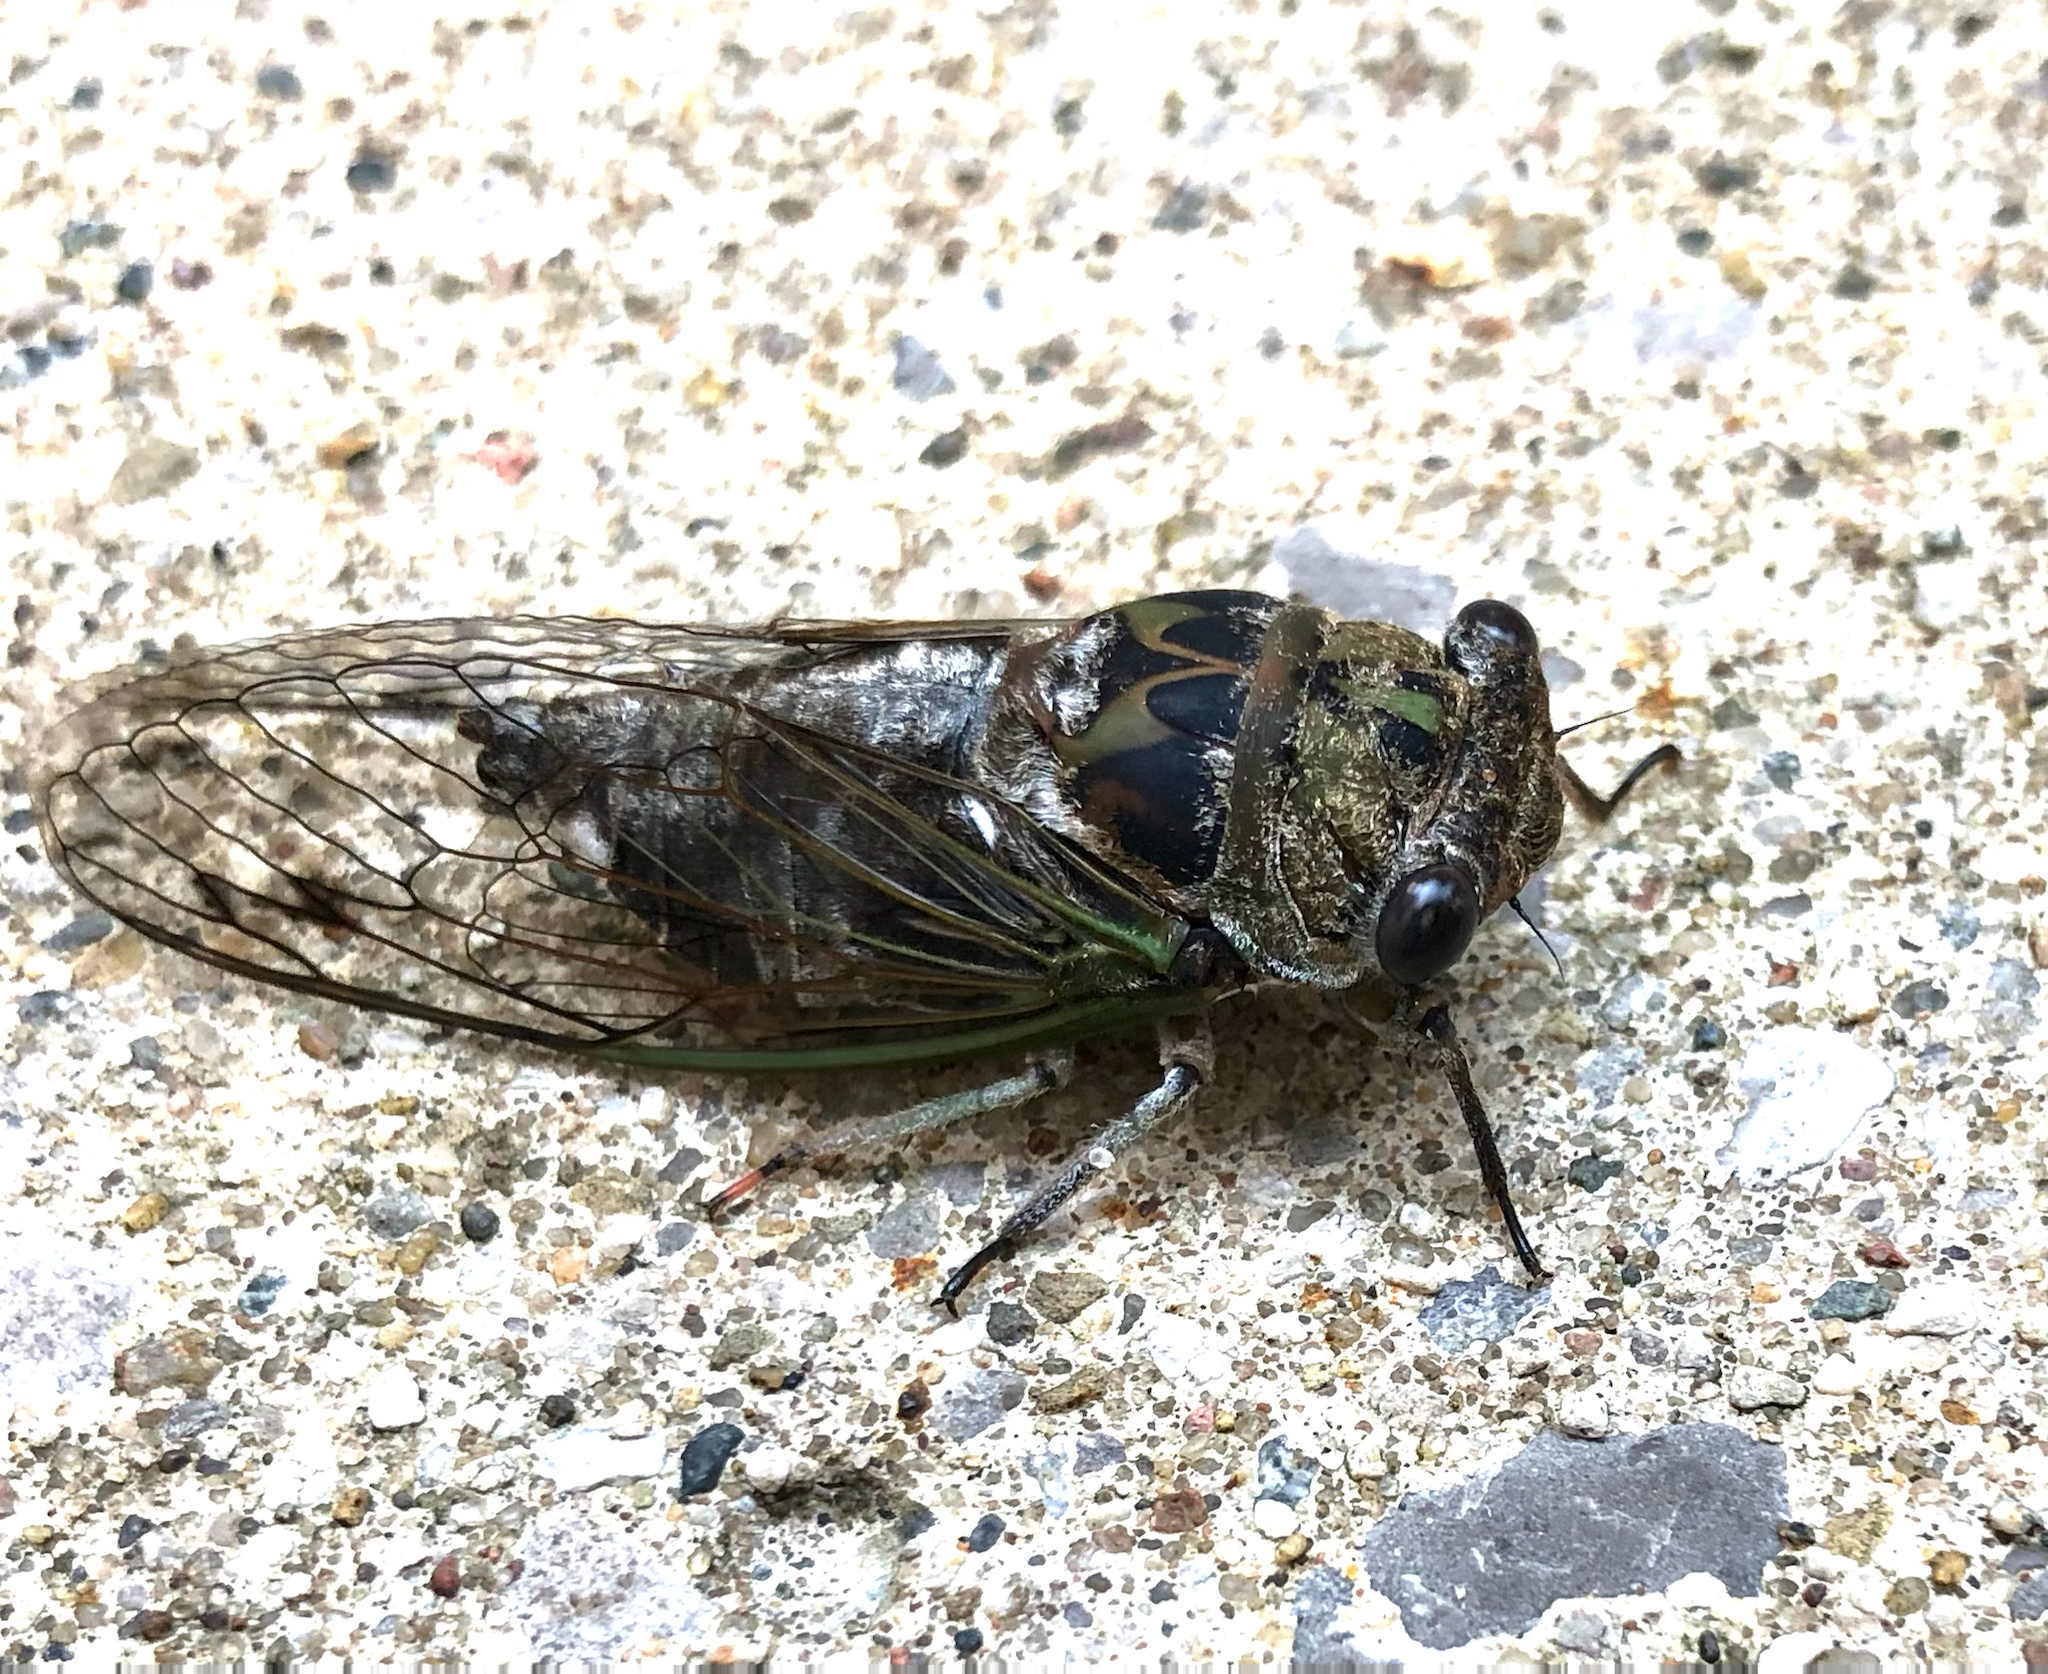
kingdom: Animalia
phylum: Arthropoda
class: Insecta
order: Hemiptera
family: Cicadidae
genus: Neotibicen
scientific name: Neotibicen canicularis
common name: God-day cicada
